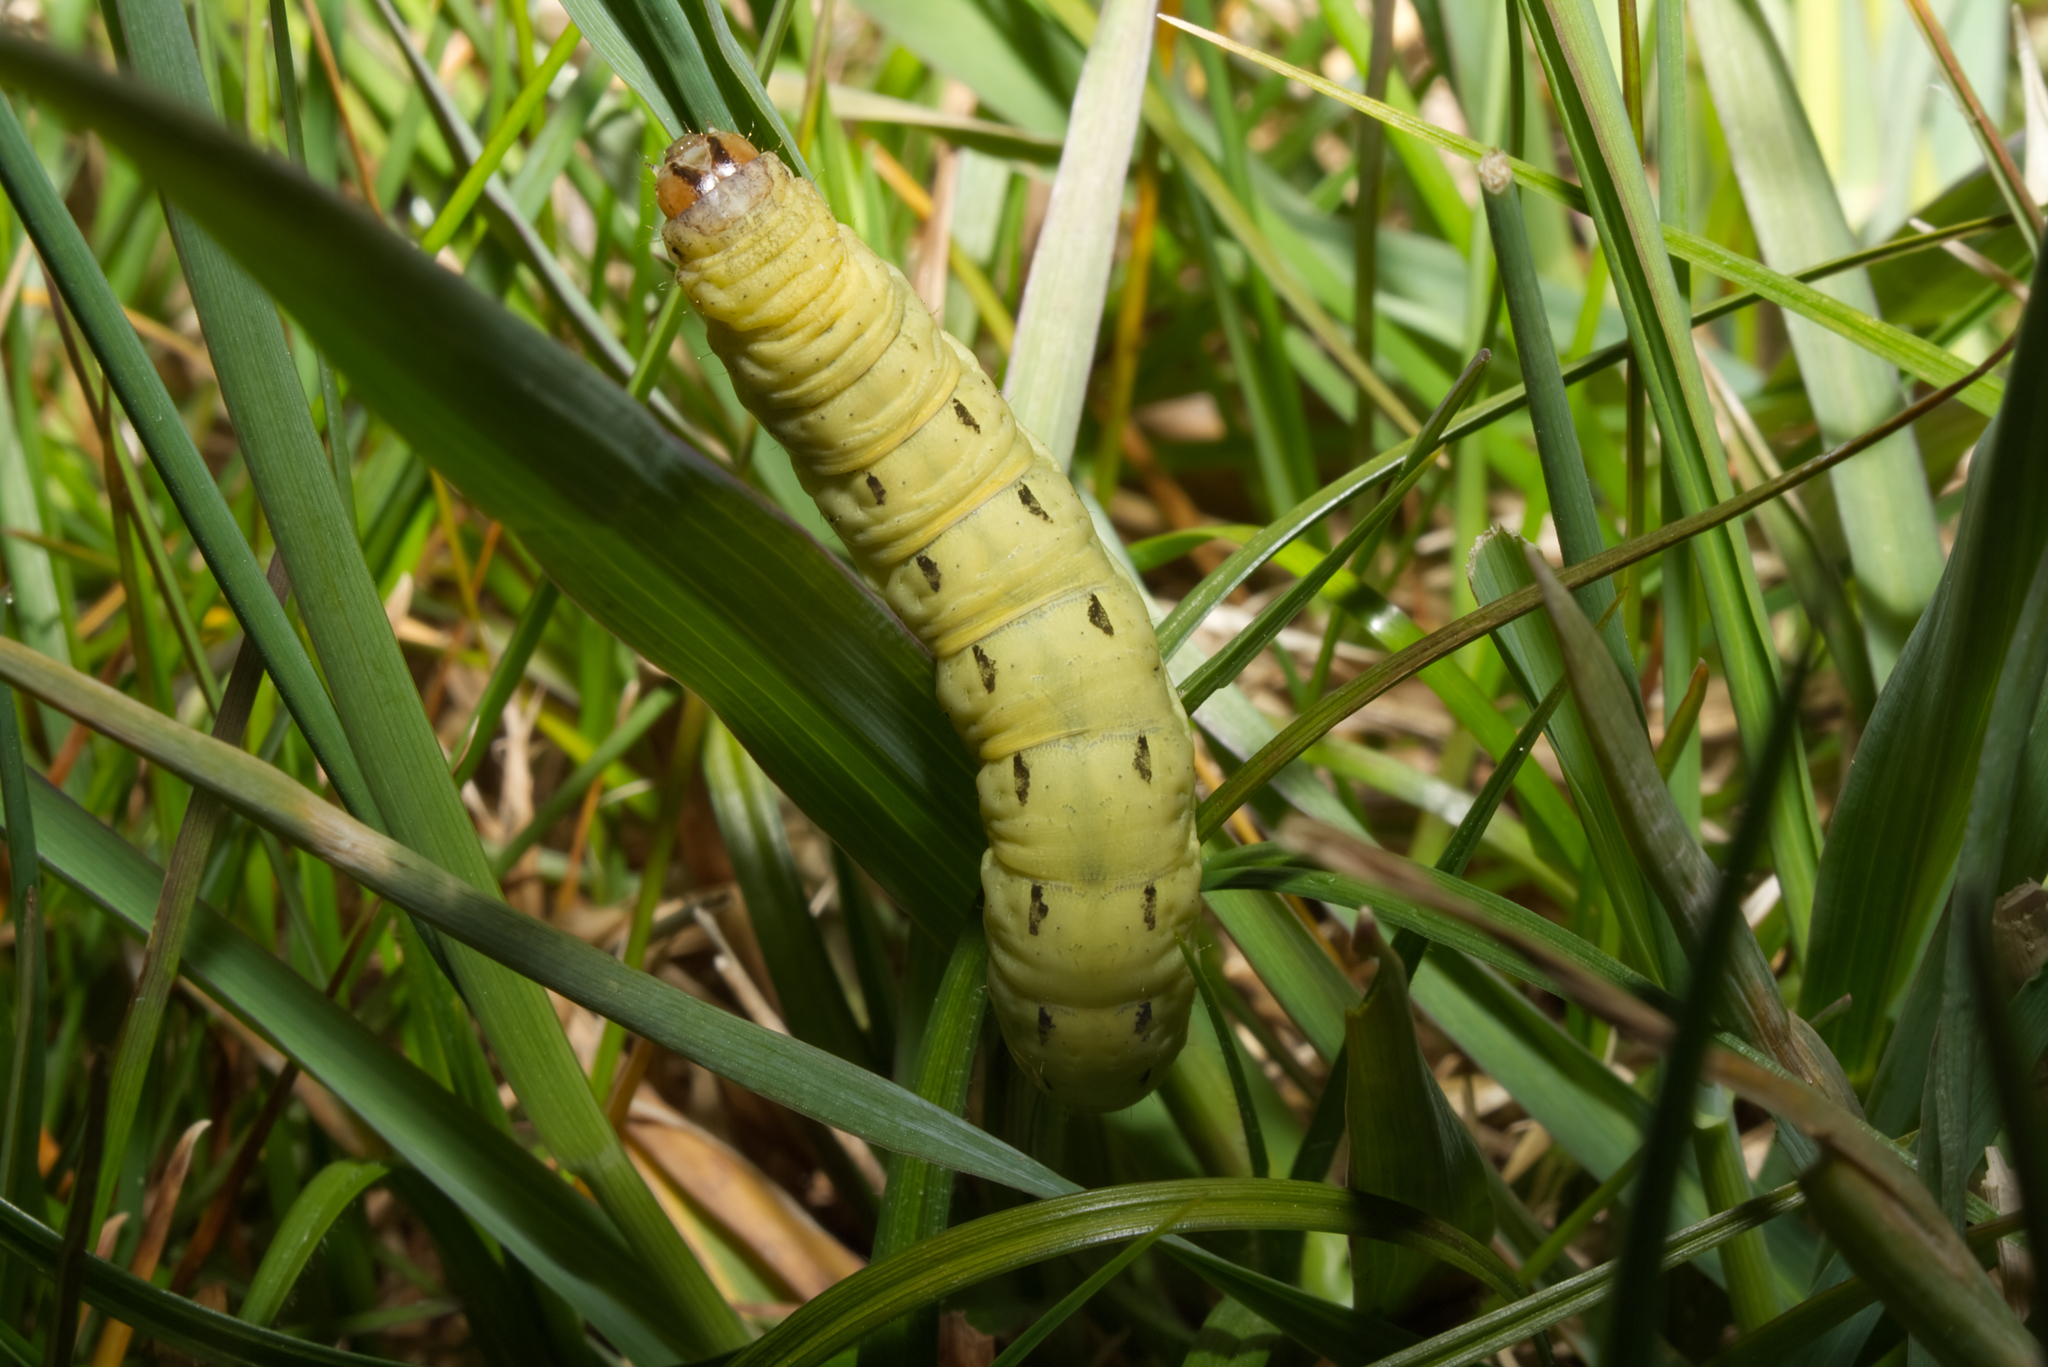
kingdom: Animalia
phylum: Arthropoda
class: Insecta
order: Lepidoptera
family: Noctuidae
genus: Noctua
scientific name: Noctua pronuba
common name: Large yellow underwing
